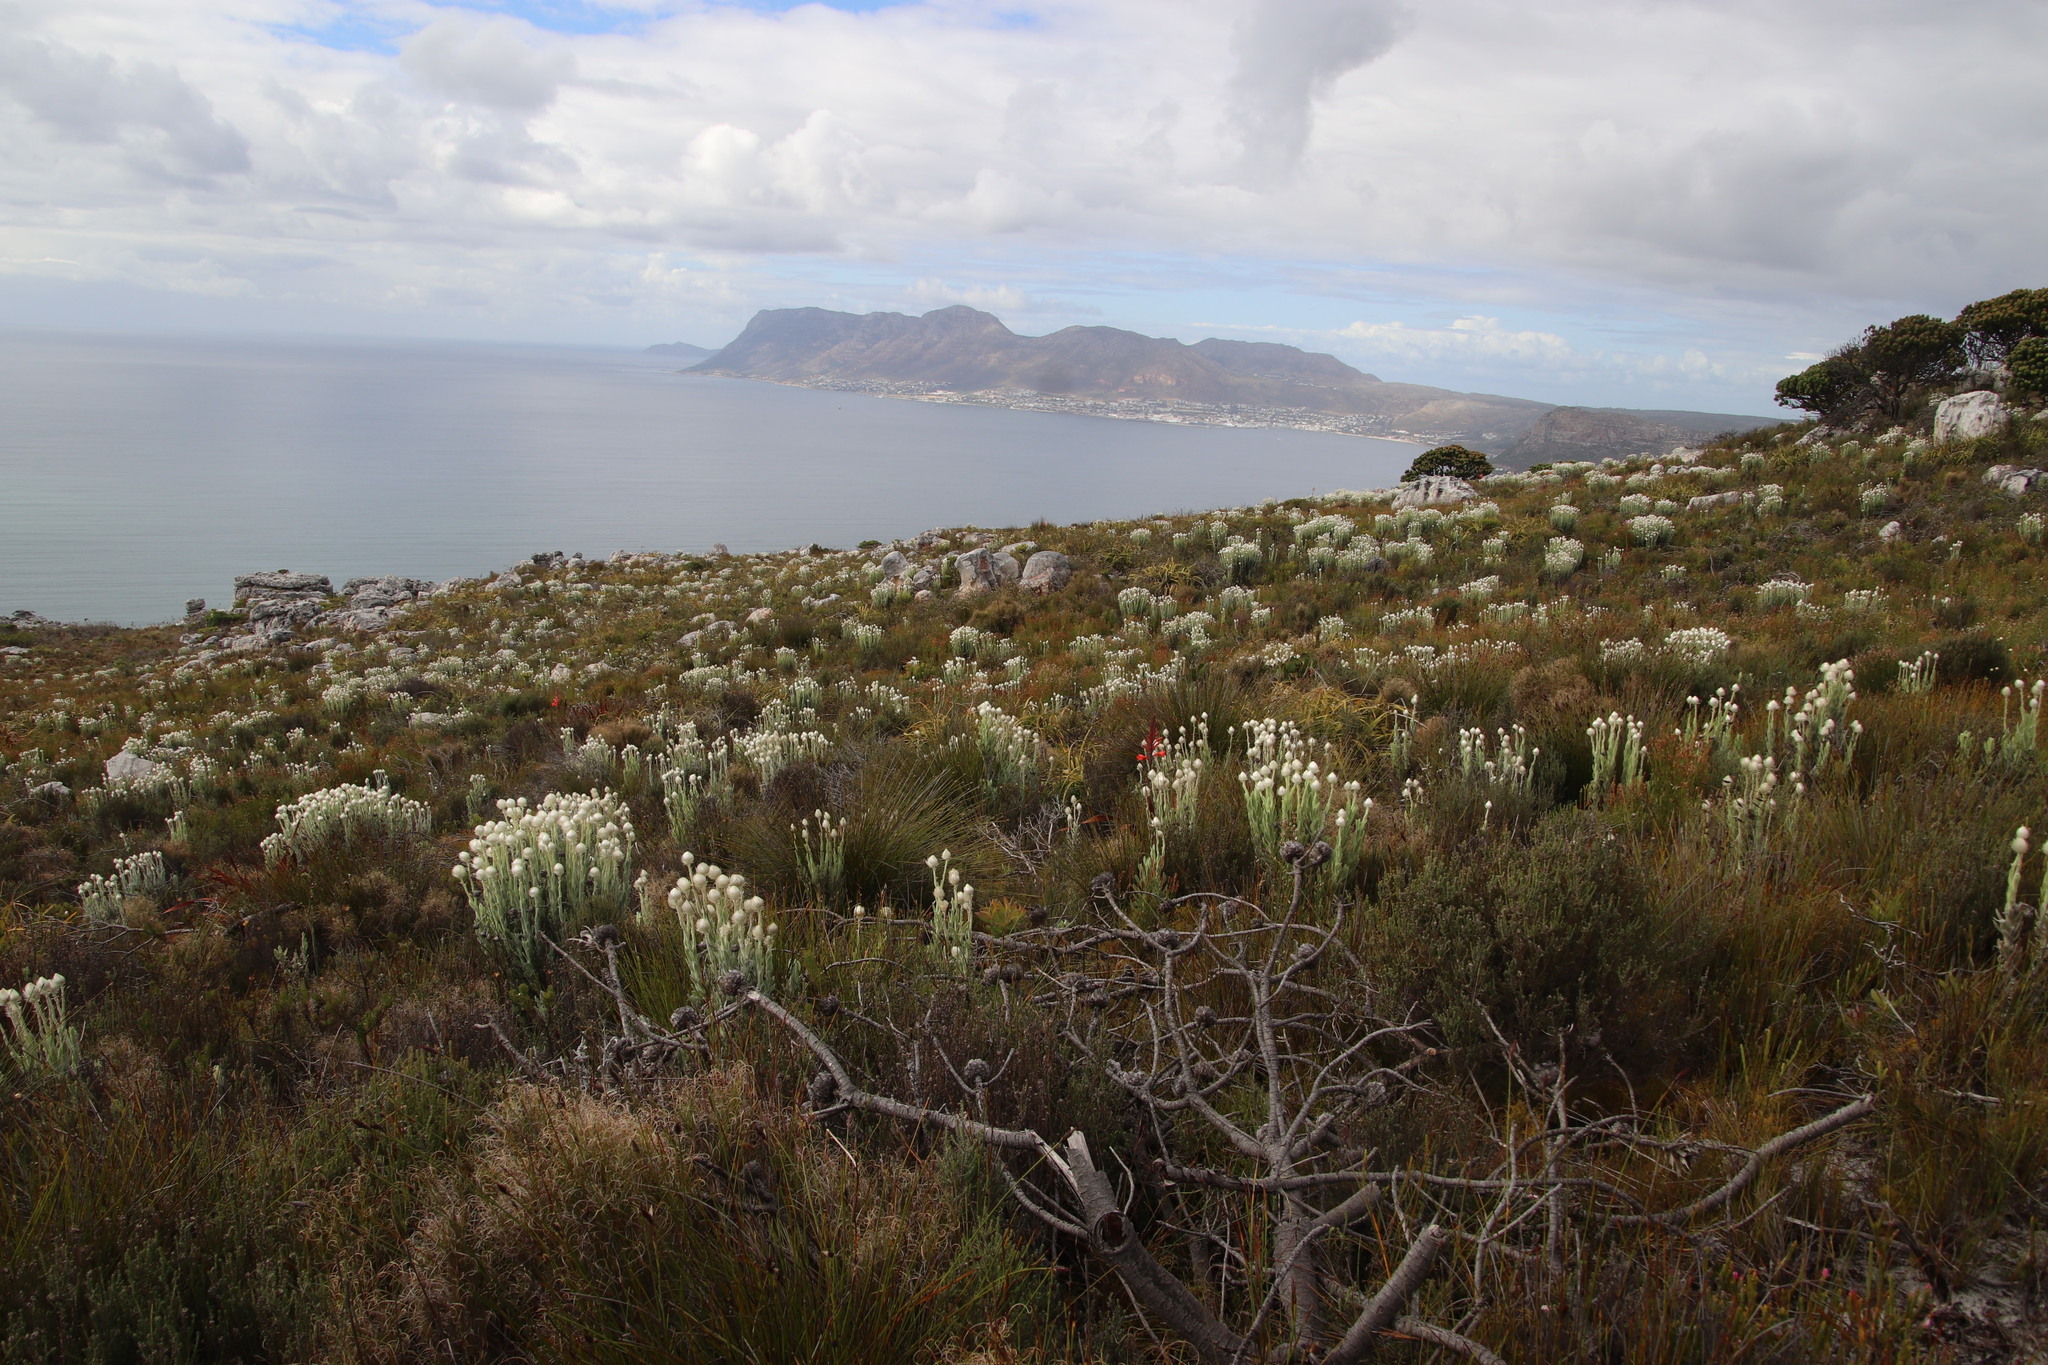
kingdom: Plantae
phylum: Tracheophyta
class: Magnoliopsida
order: Asterales
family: Asteraceae
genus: Syncarpha
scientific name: Syncarpha vestita
